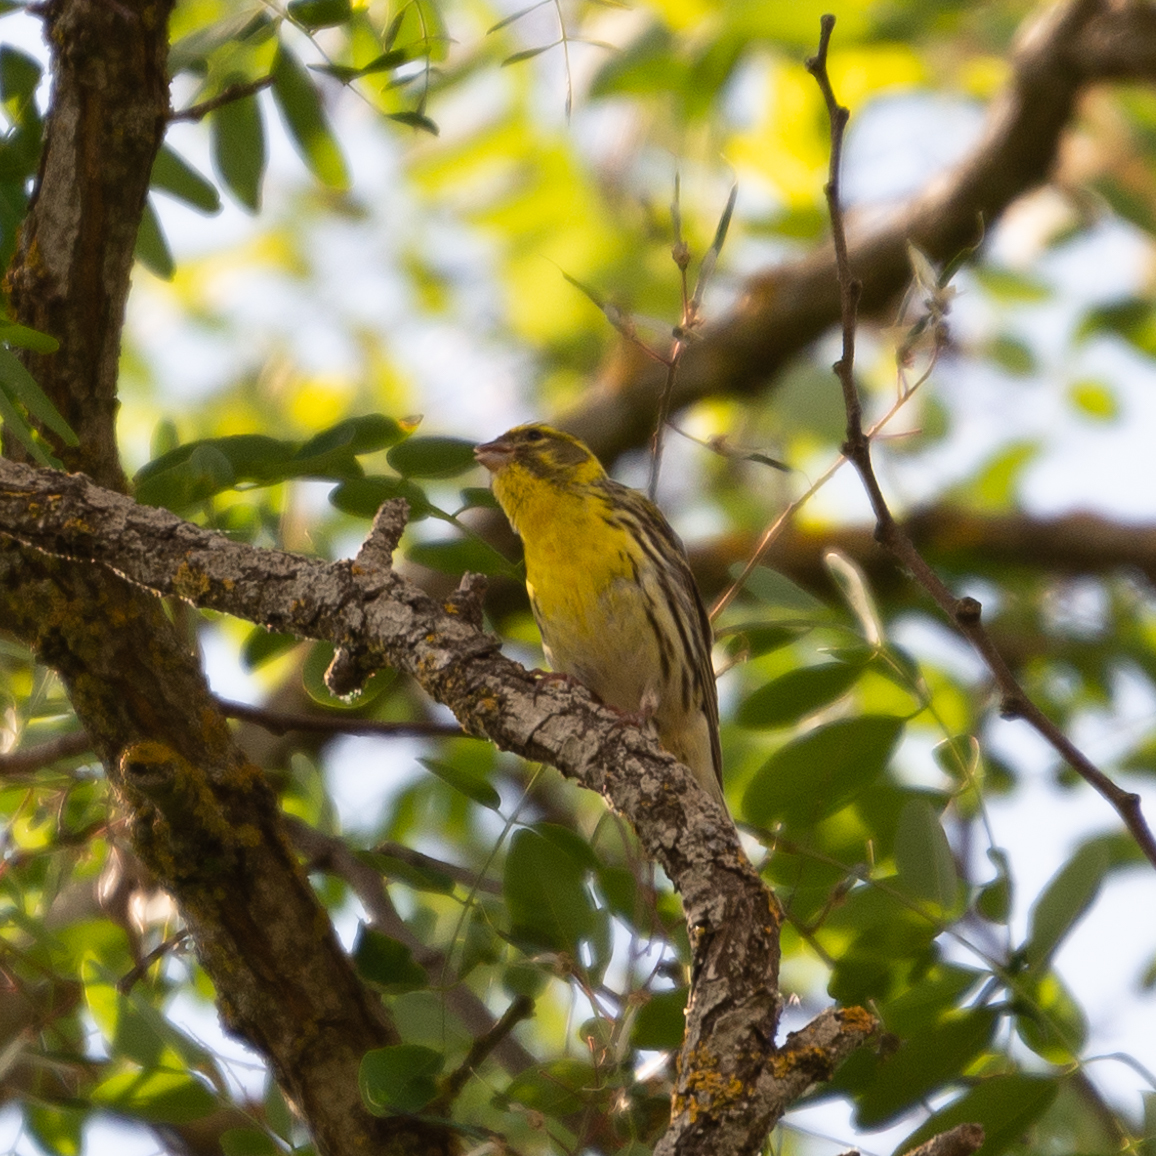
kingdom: Animalia
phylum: Chordata
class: Aves
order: Passeriformes
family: Fringillidae
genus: Serinus
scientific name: Serinus serinus
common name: European serin
